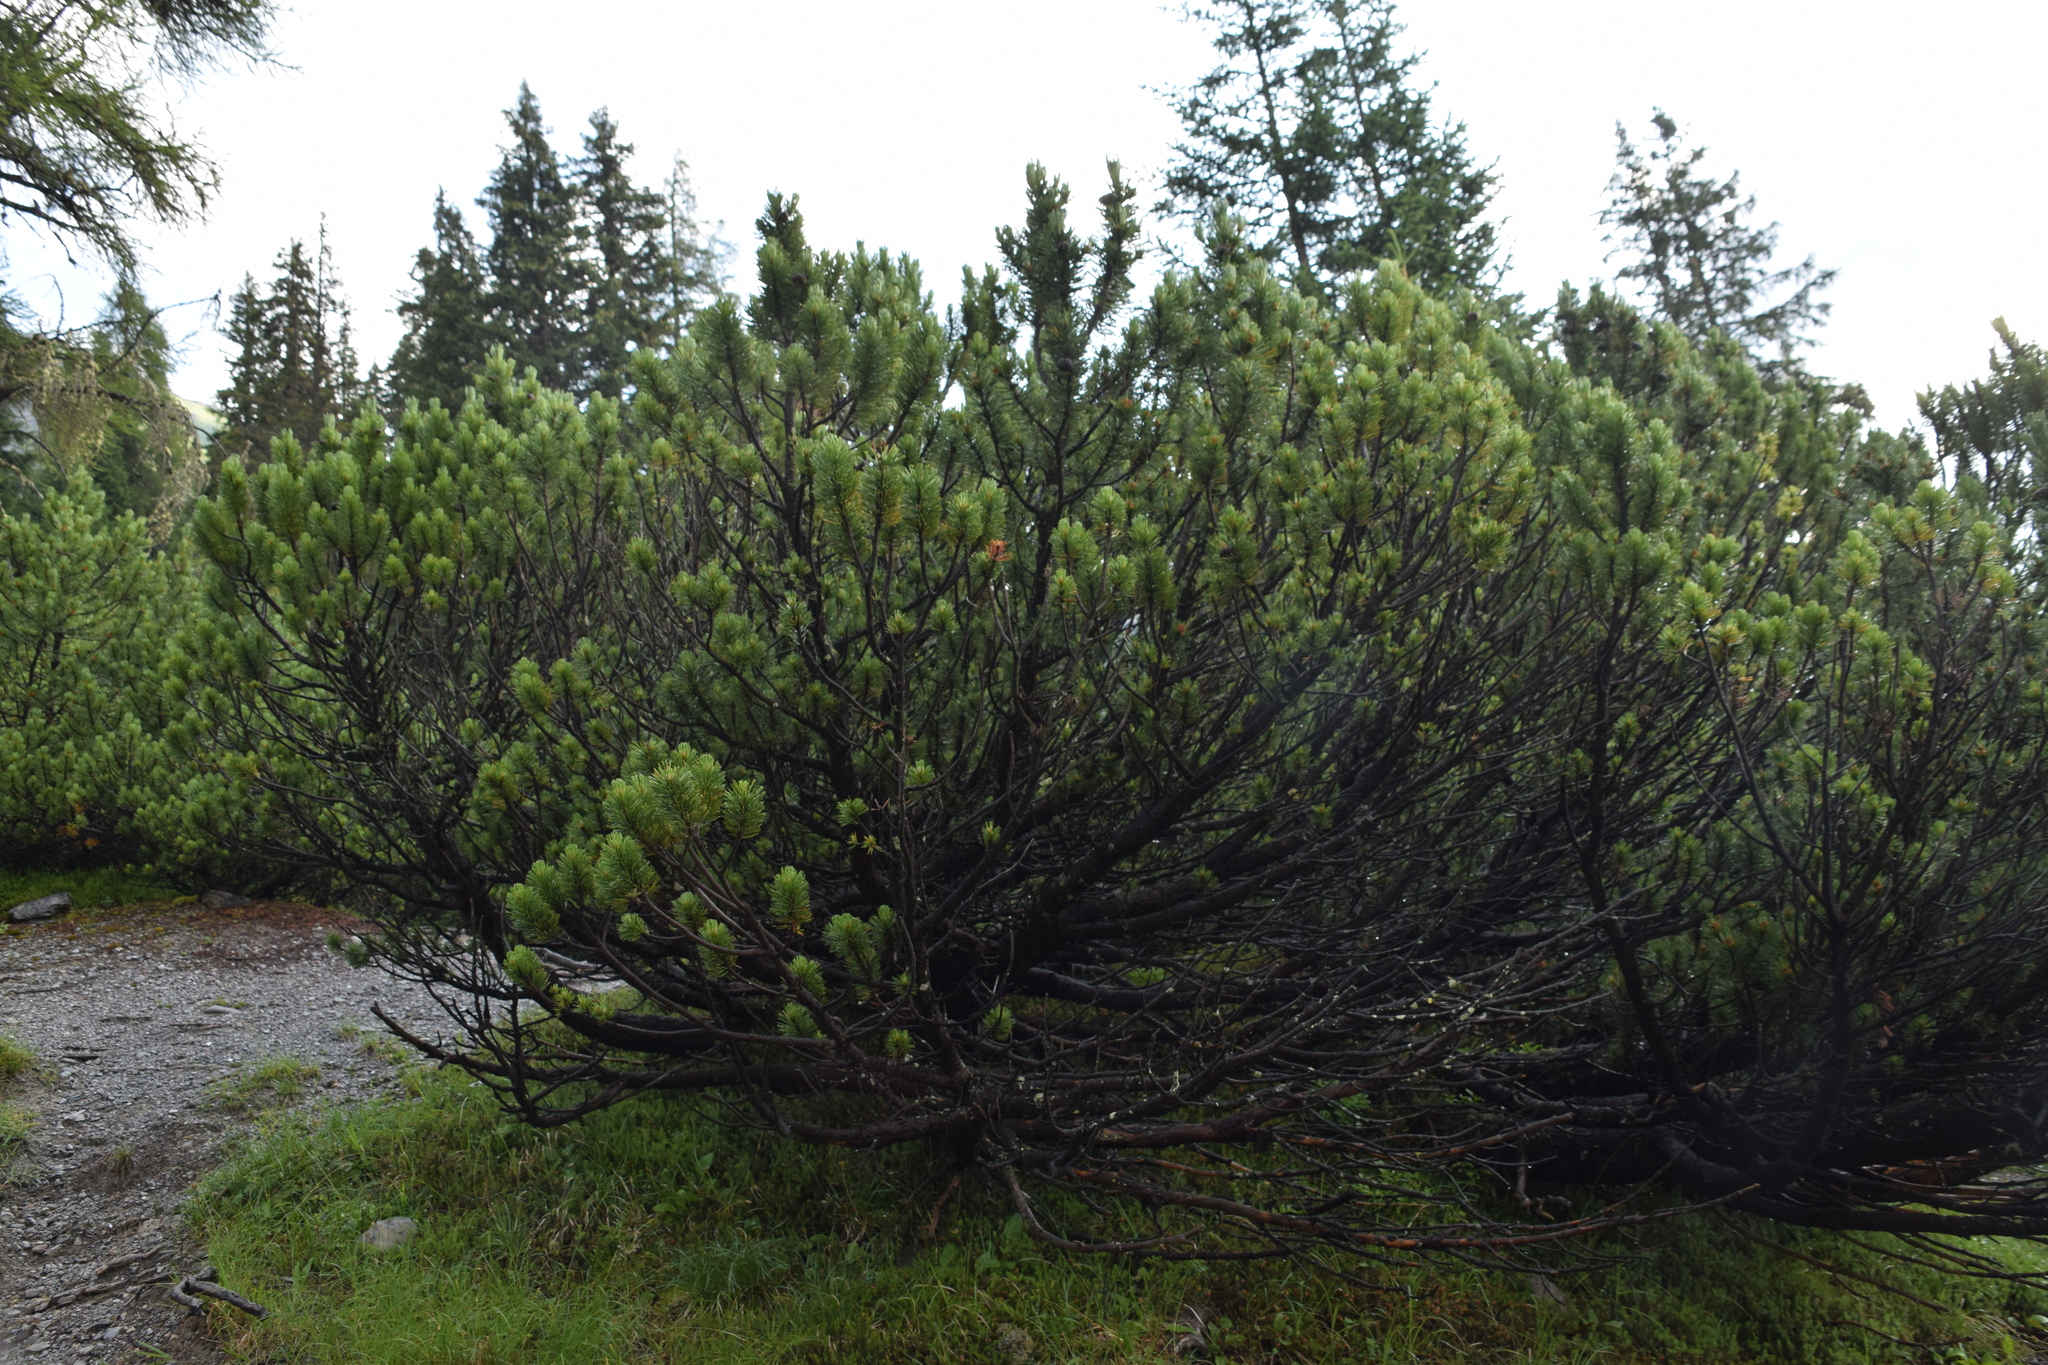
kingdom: Plantae
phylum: Tracheophyta
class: Pinopsida
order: Pinales
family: Pinaceae
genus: Pinus
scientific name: Pinus mugo
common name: Mugo pine
